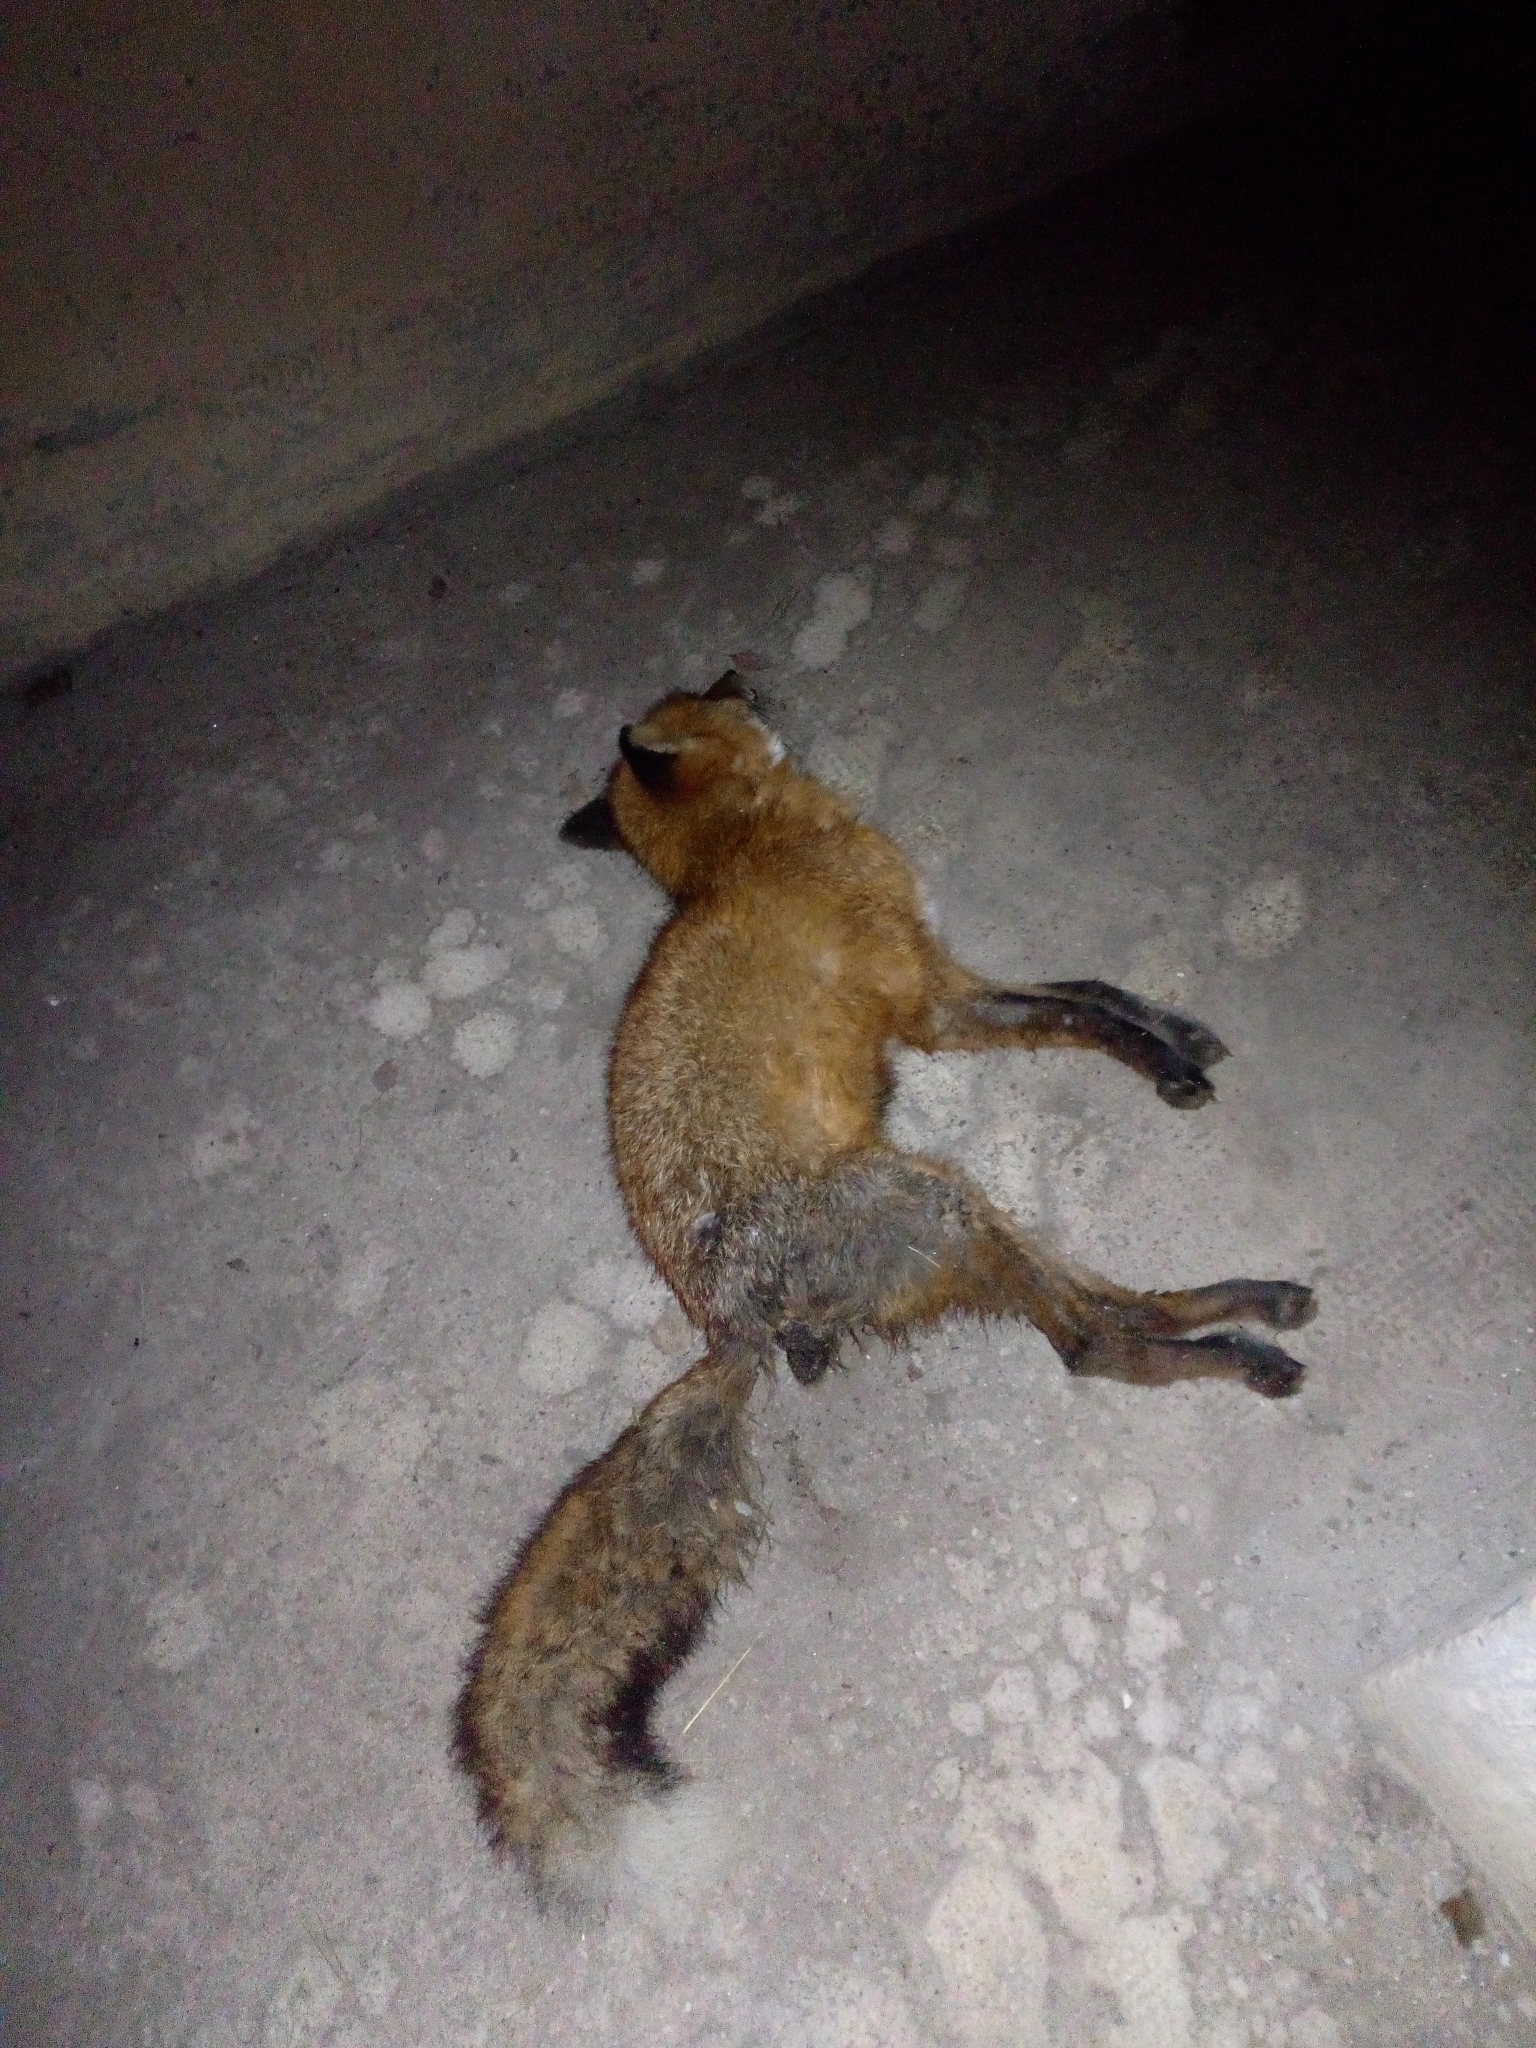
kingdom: Animalia
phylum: Chordata
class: Mammalia
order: Carnivora
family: Canidae
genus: Vulpes
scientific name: Vulpes vulpes
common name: Red fox
